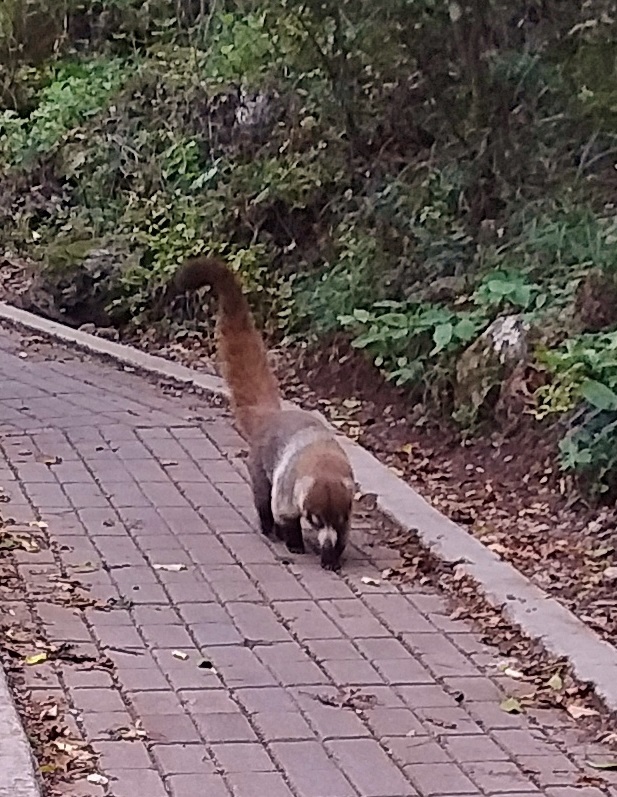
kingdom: Animalia
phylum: Chordata
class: Mammalia
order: Carnivora
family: Procyonidae
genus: Nasua
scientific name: Nasua narica
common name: White-nosed coati
